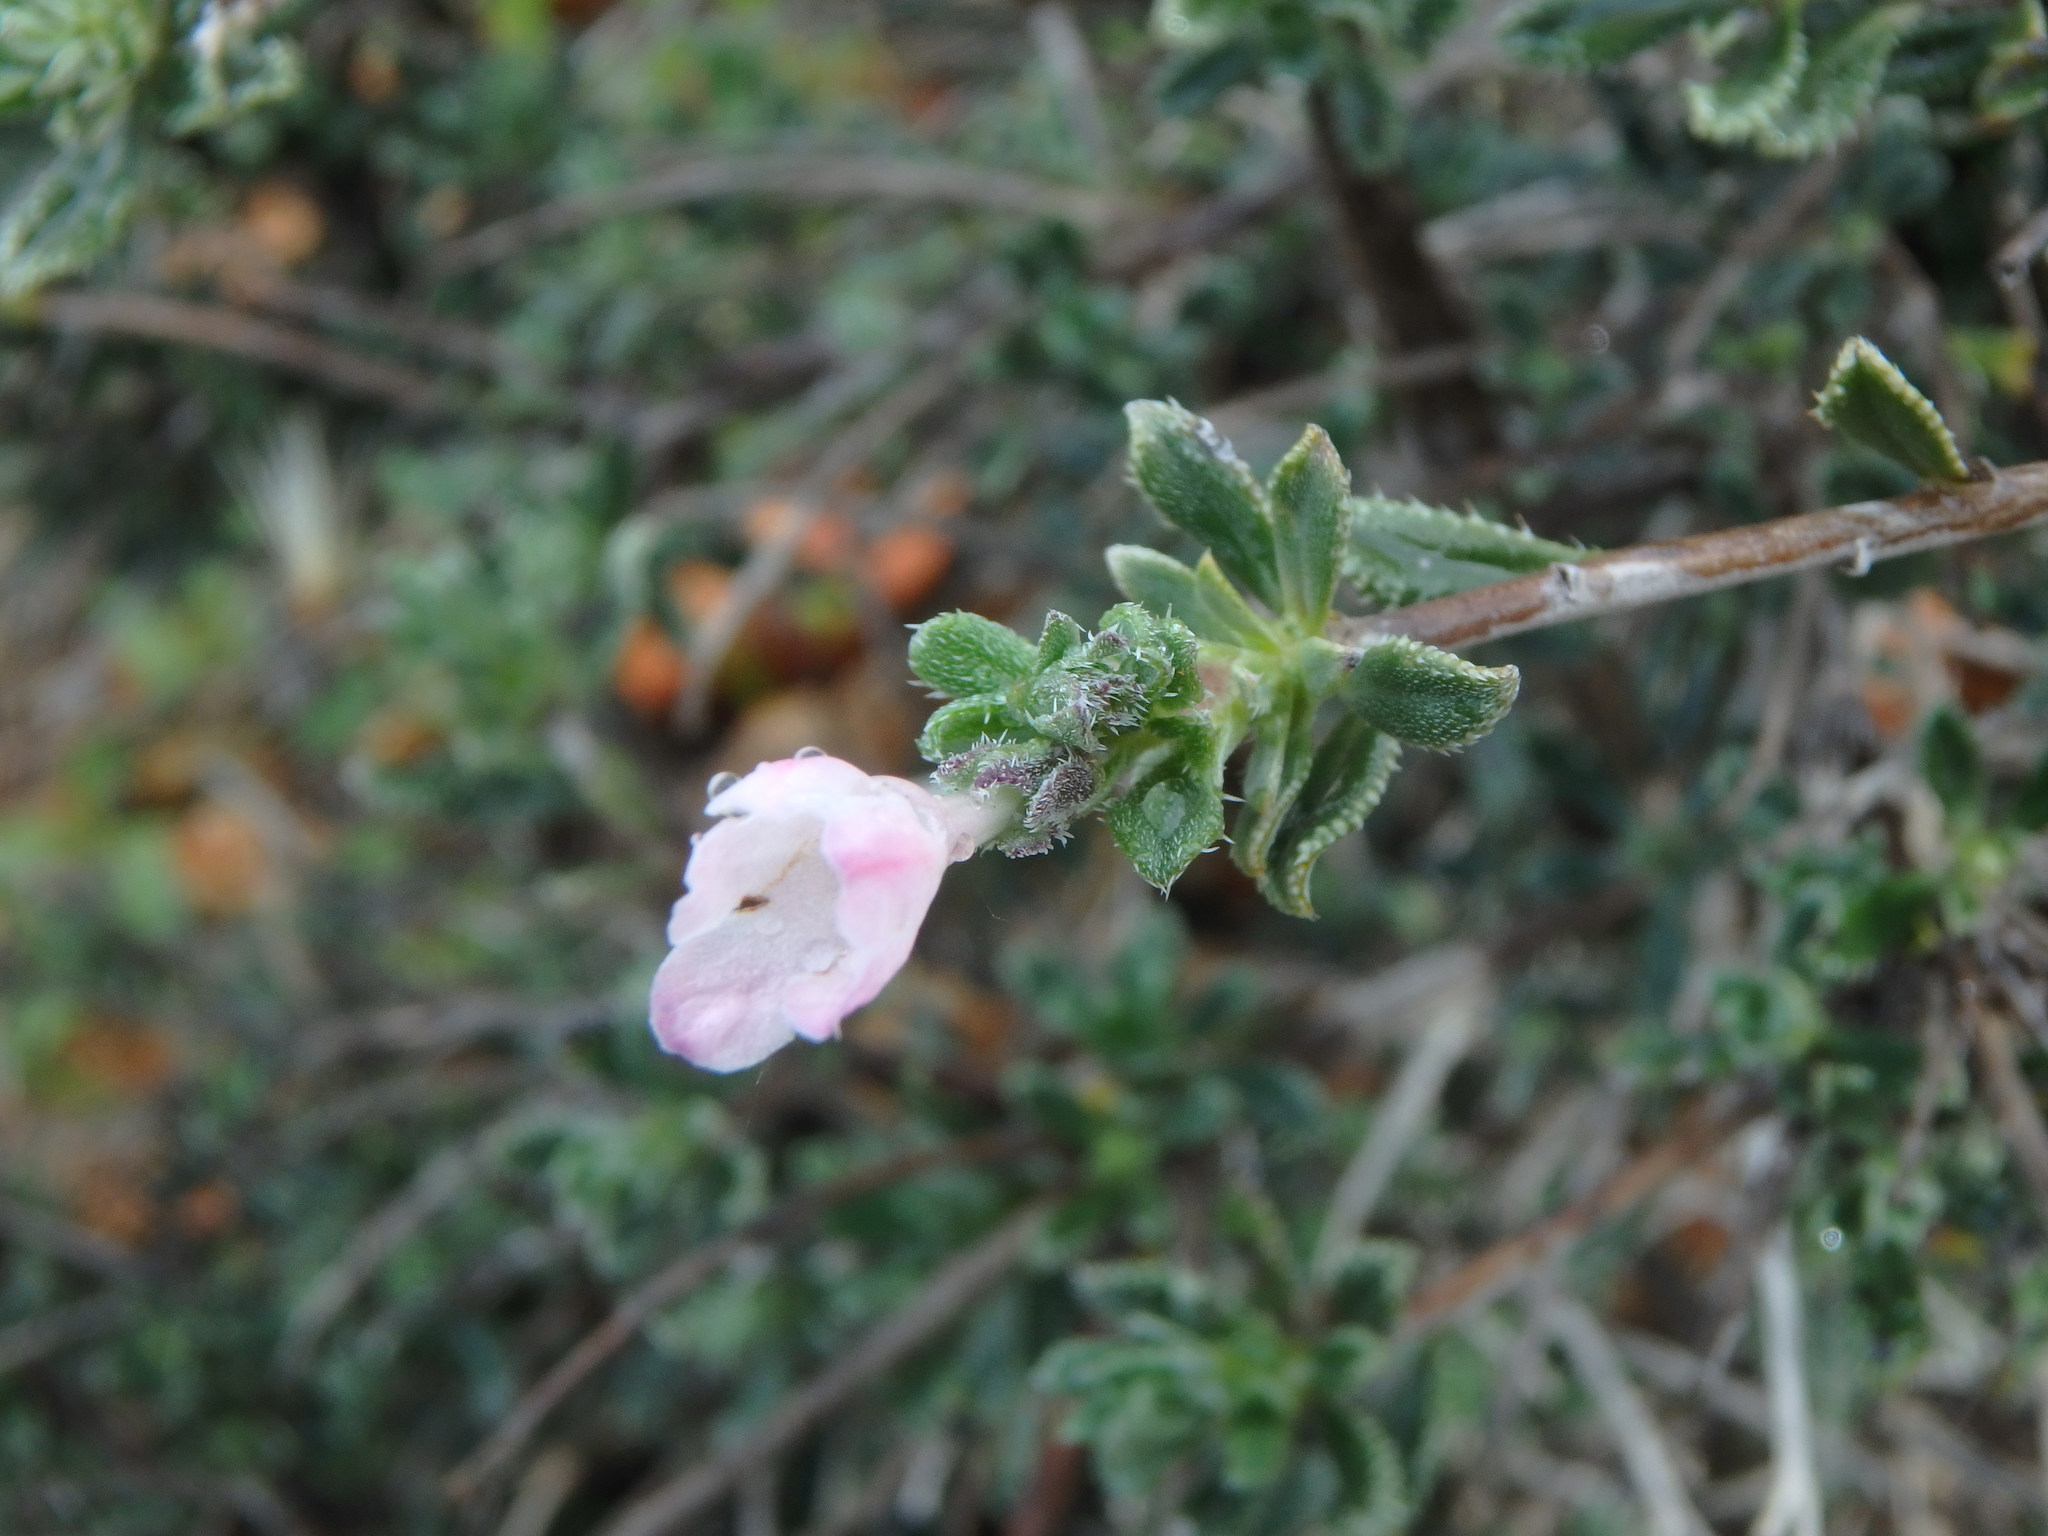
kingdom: Plantae
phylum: Tracheophyta
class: Magnoliopsida
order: Boraginales
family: Boraginaceae
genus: Lithodora
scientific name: Lithodora hispidula
